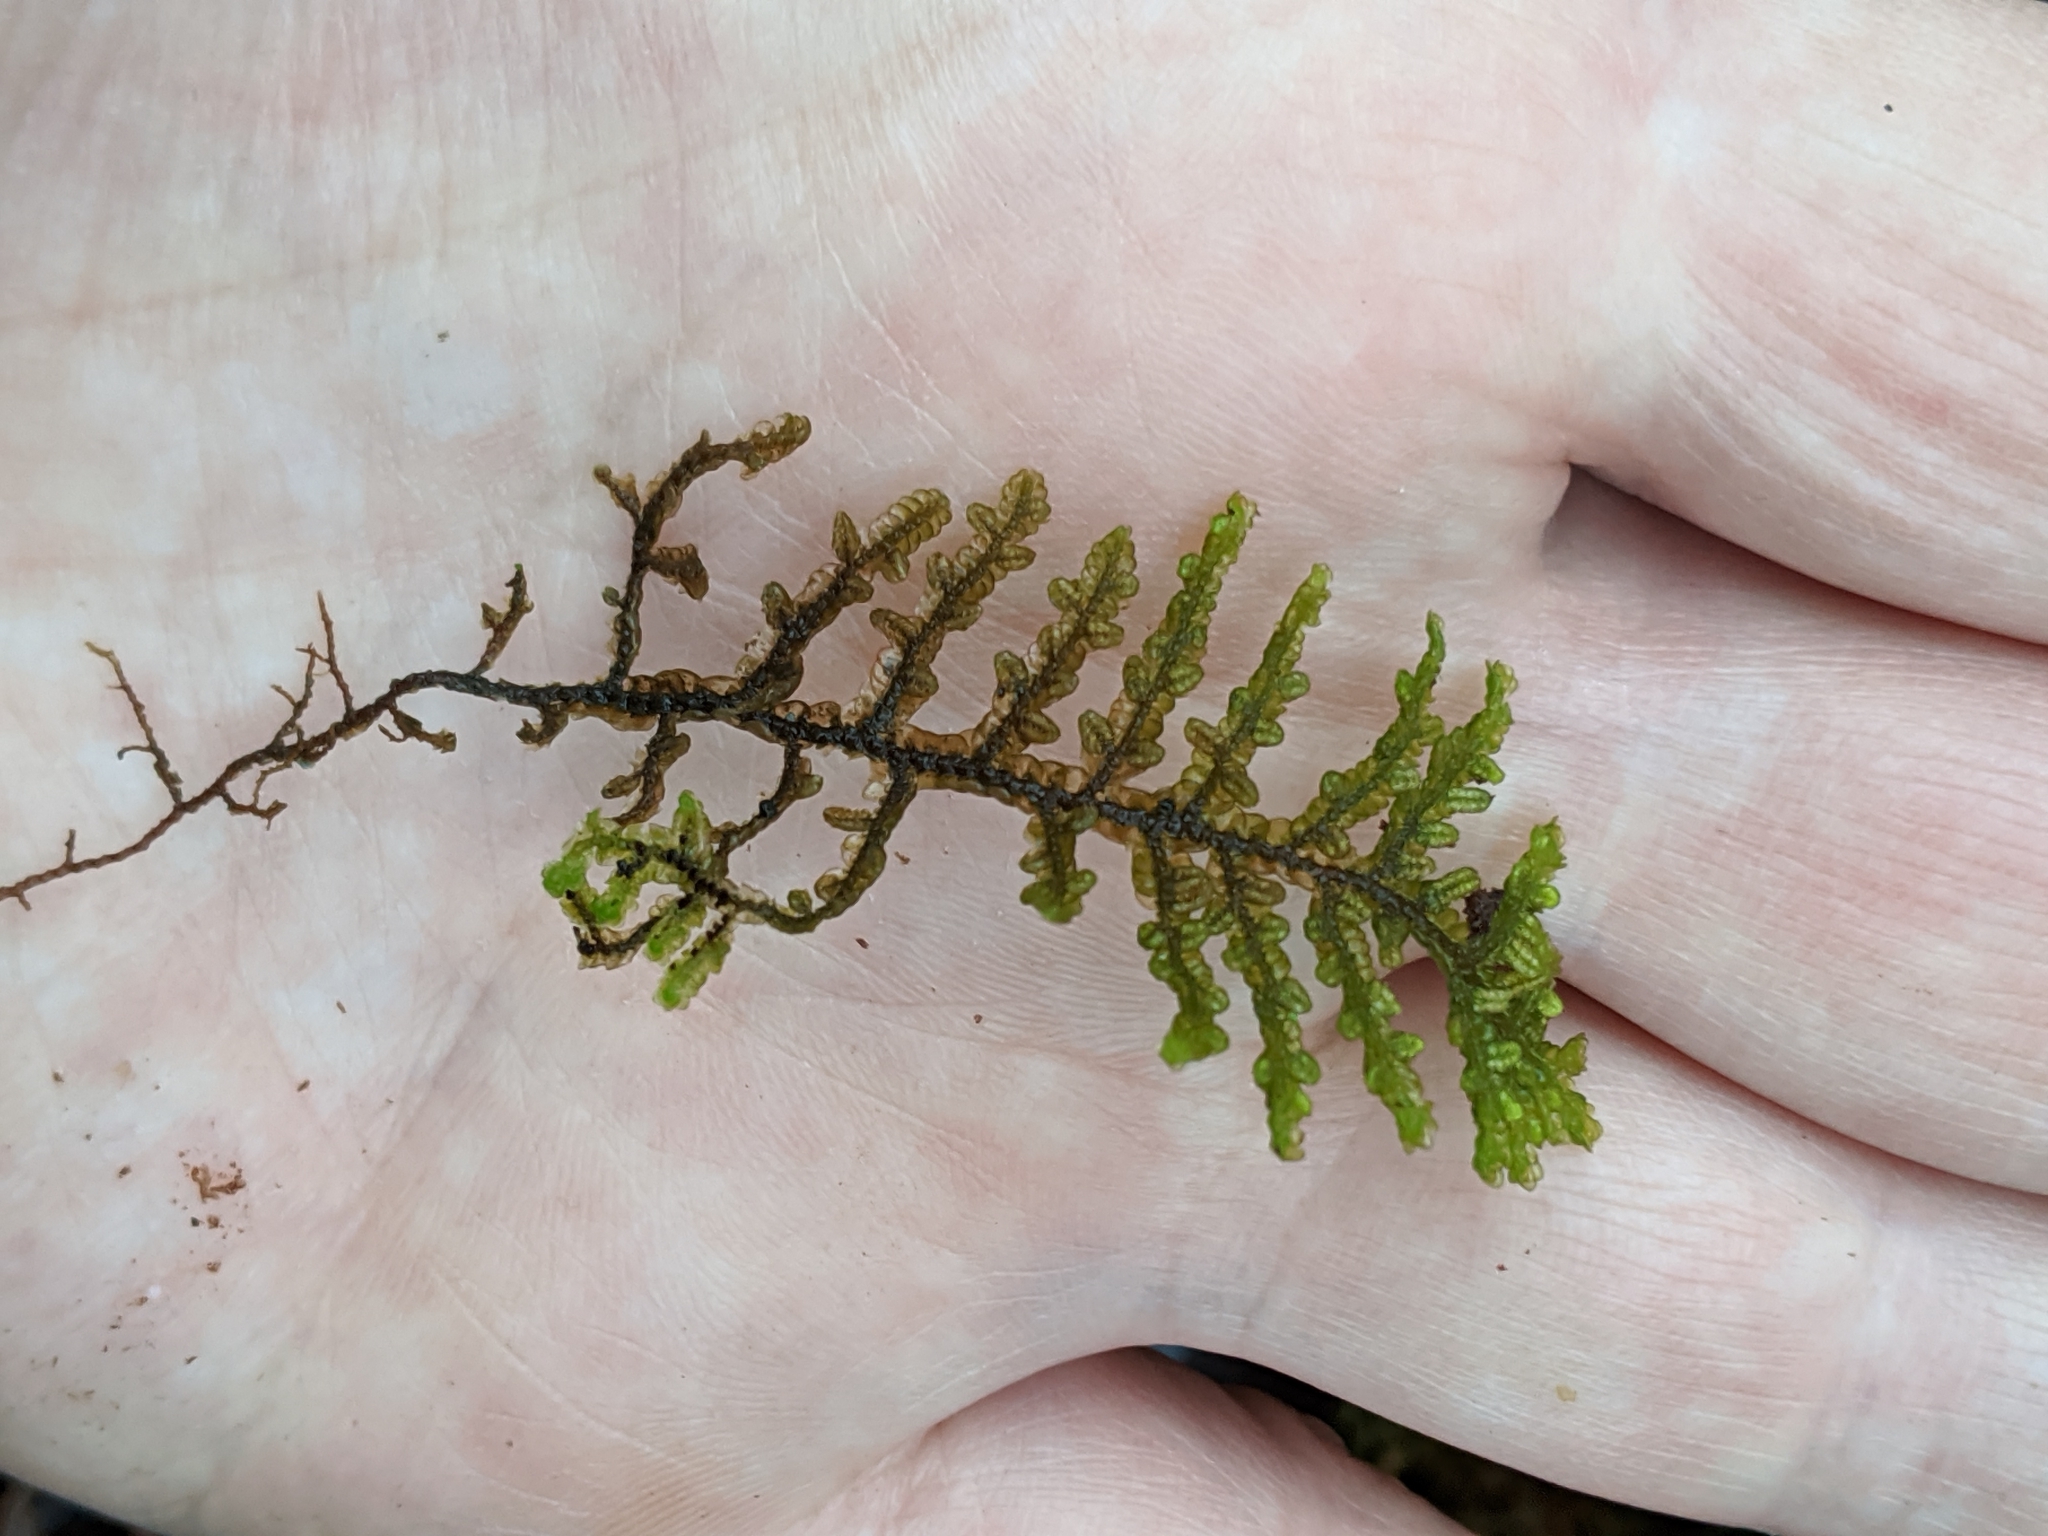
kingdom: Plantae
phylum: Marchantiophyta
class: Jungermanniopsida
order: Porellales
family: Porellaceae
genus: Porella
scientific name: Porella navicularis
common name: Tree ruffle liverwort
